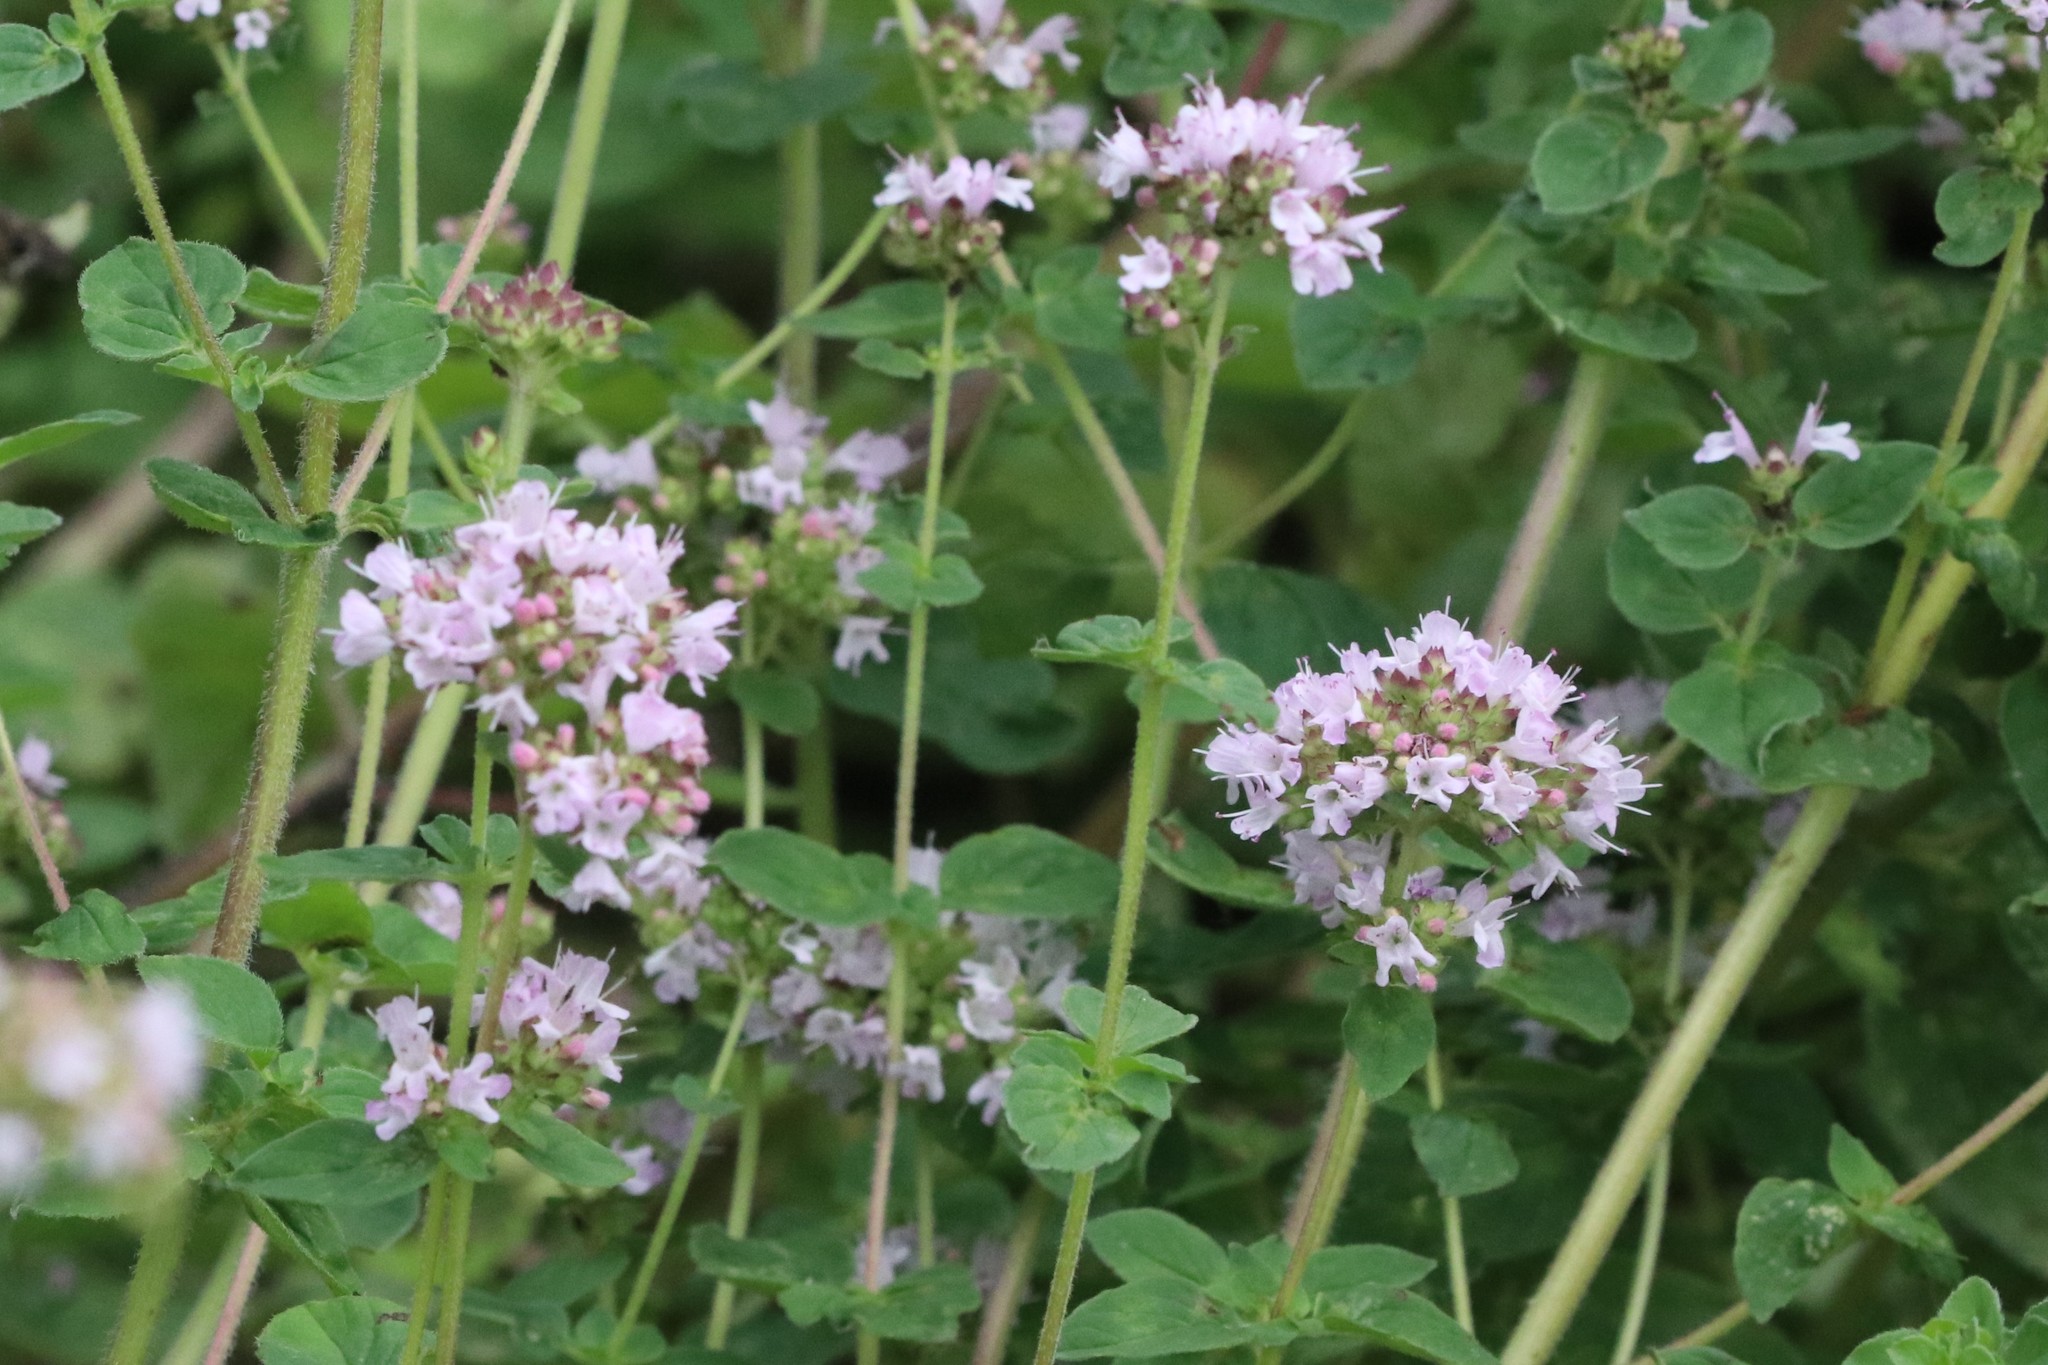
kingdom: Plantae
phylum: Tracheophyta
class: Magnoliopsida
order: Lamiales
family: Lamiaceae
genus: Origanum
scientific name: Origanum vulgare
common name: Wild marjoram
